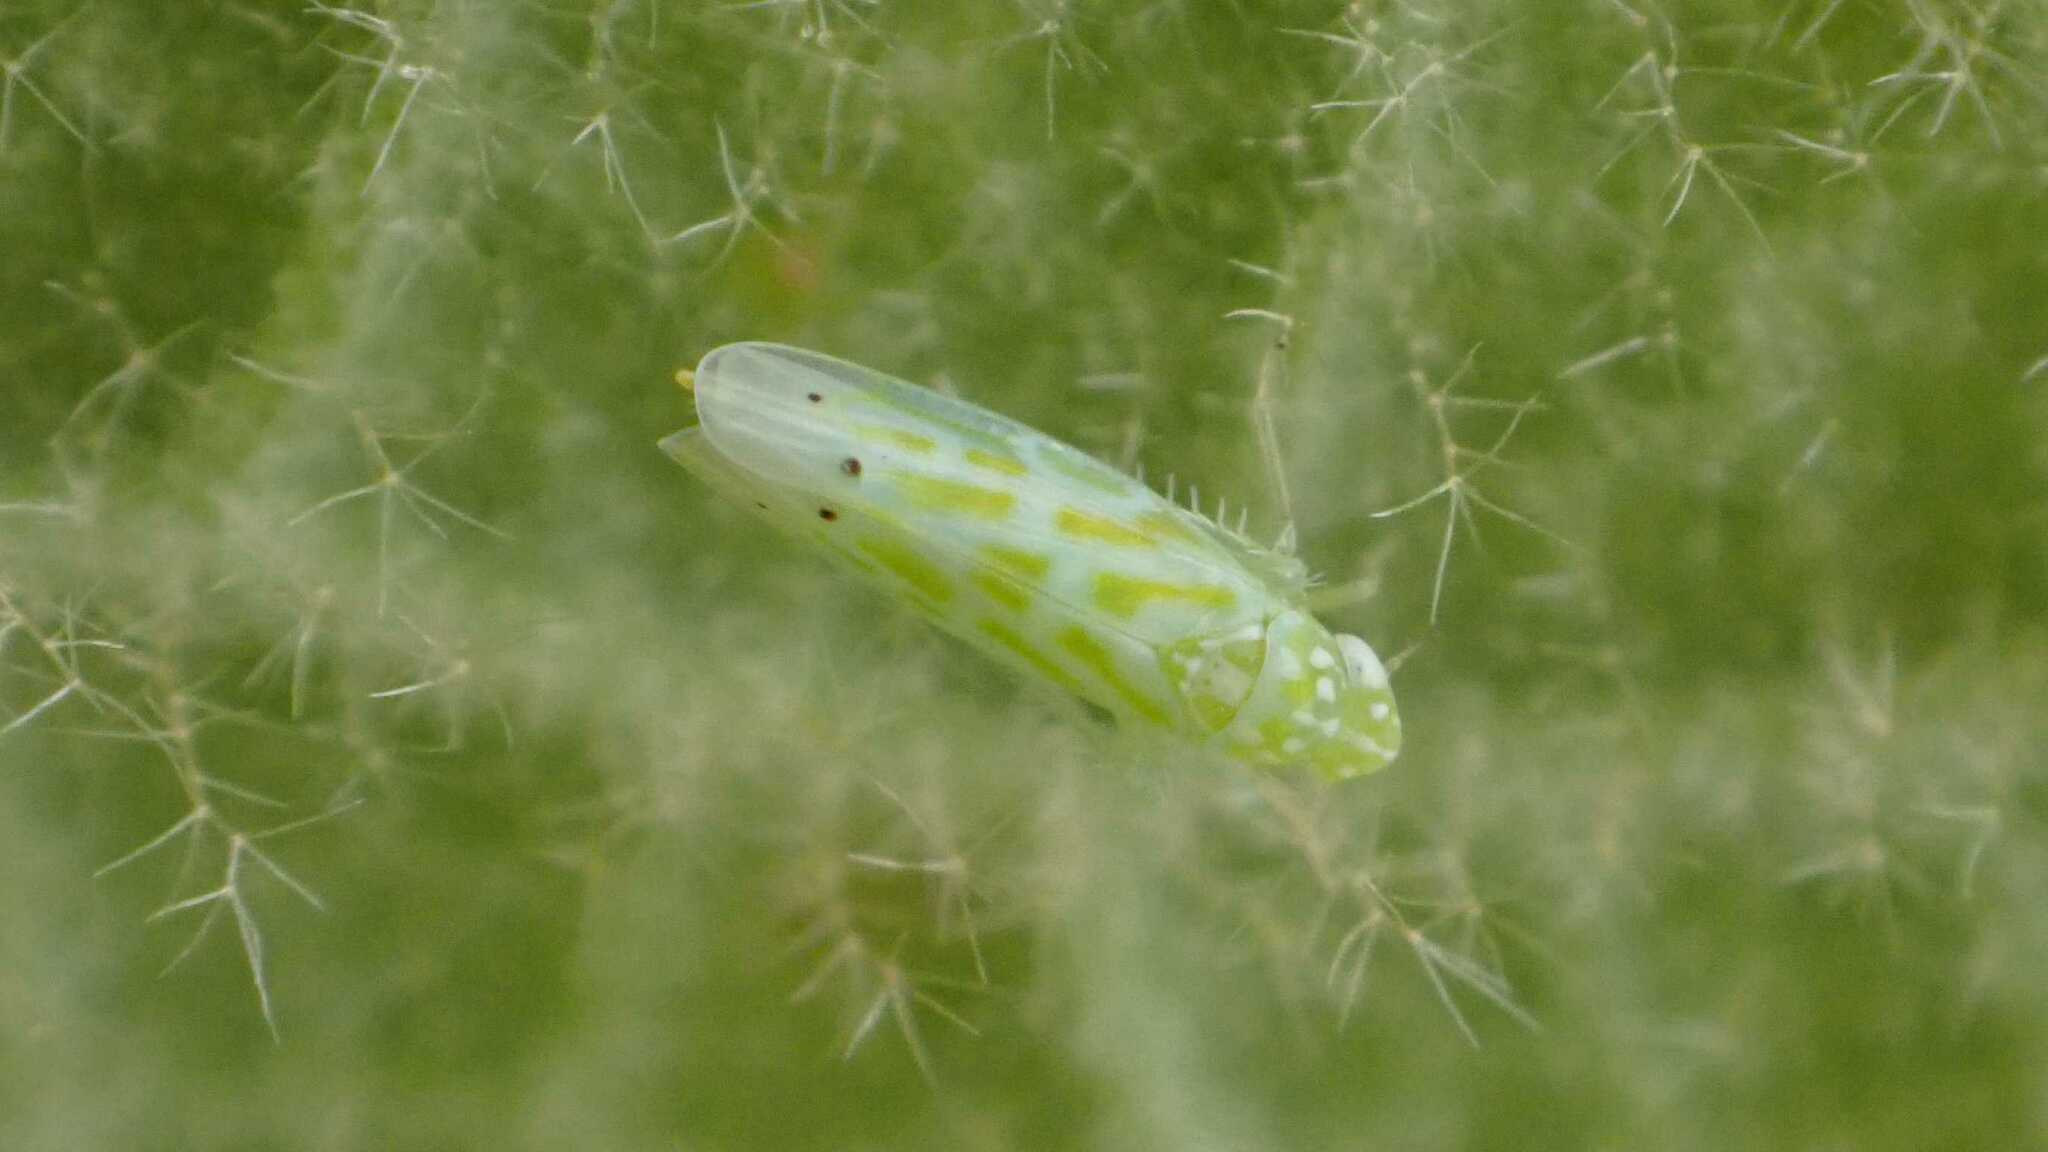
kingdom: Animalia
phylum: Arthropoda
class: Insecta
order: Hemiptera
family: Cicadellidae
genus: Micantulina
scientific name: Micantulina stigmatipennis
